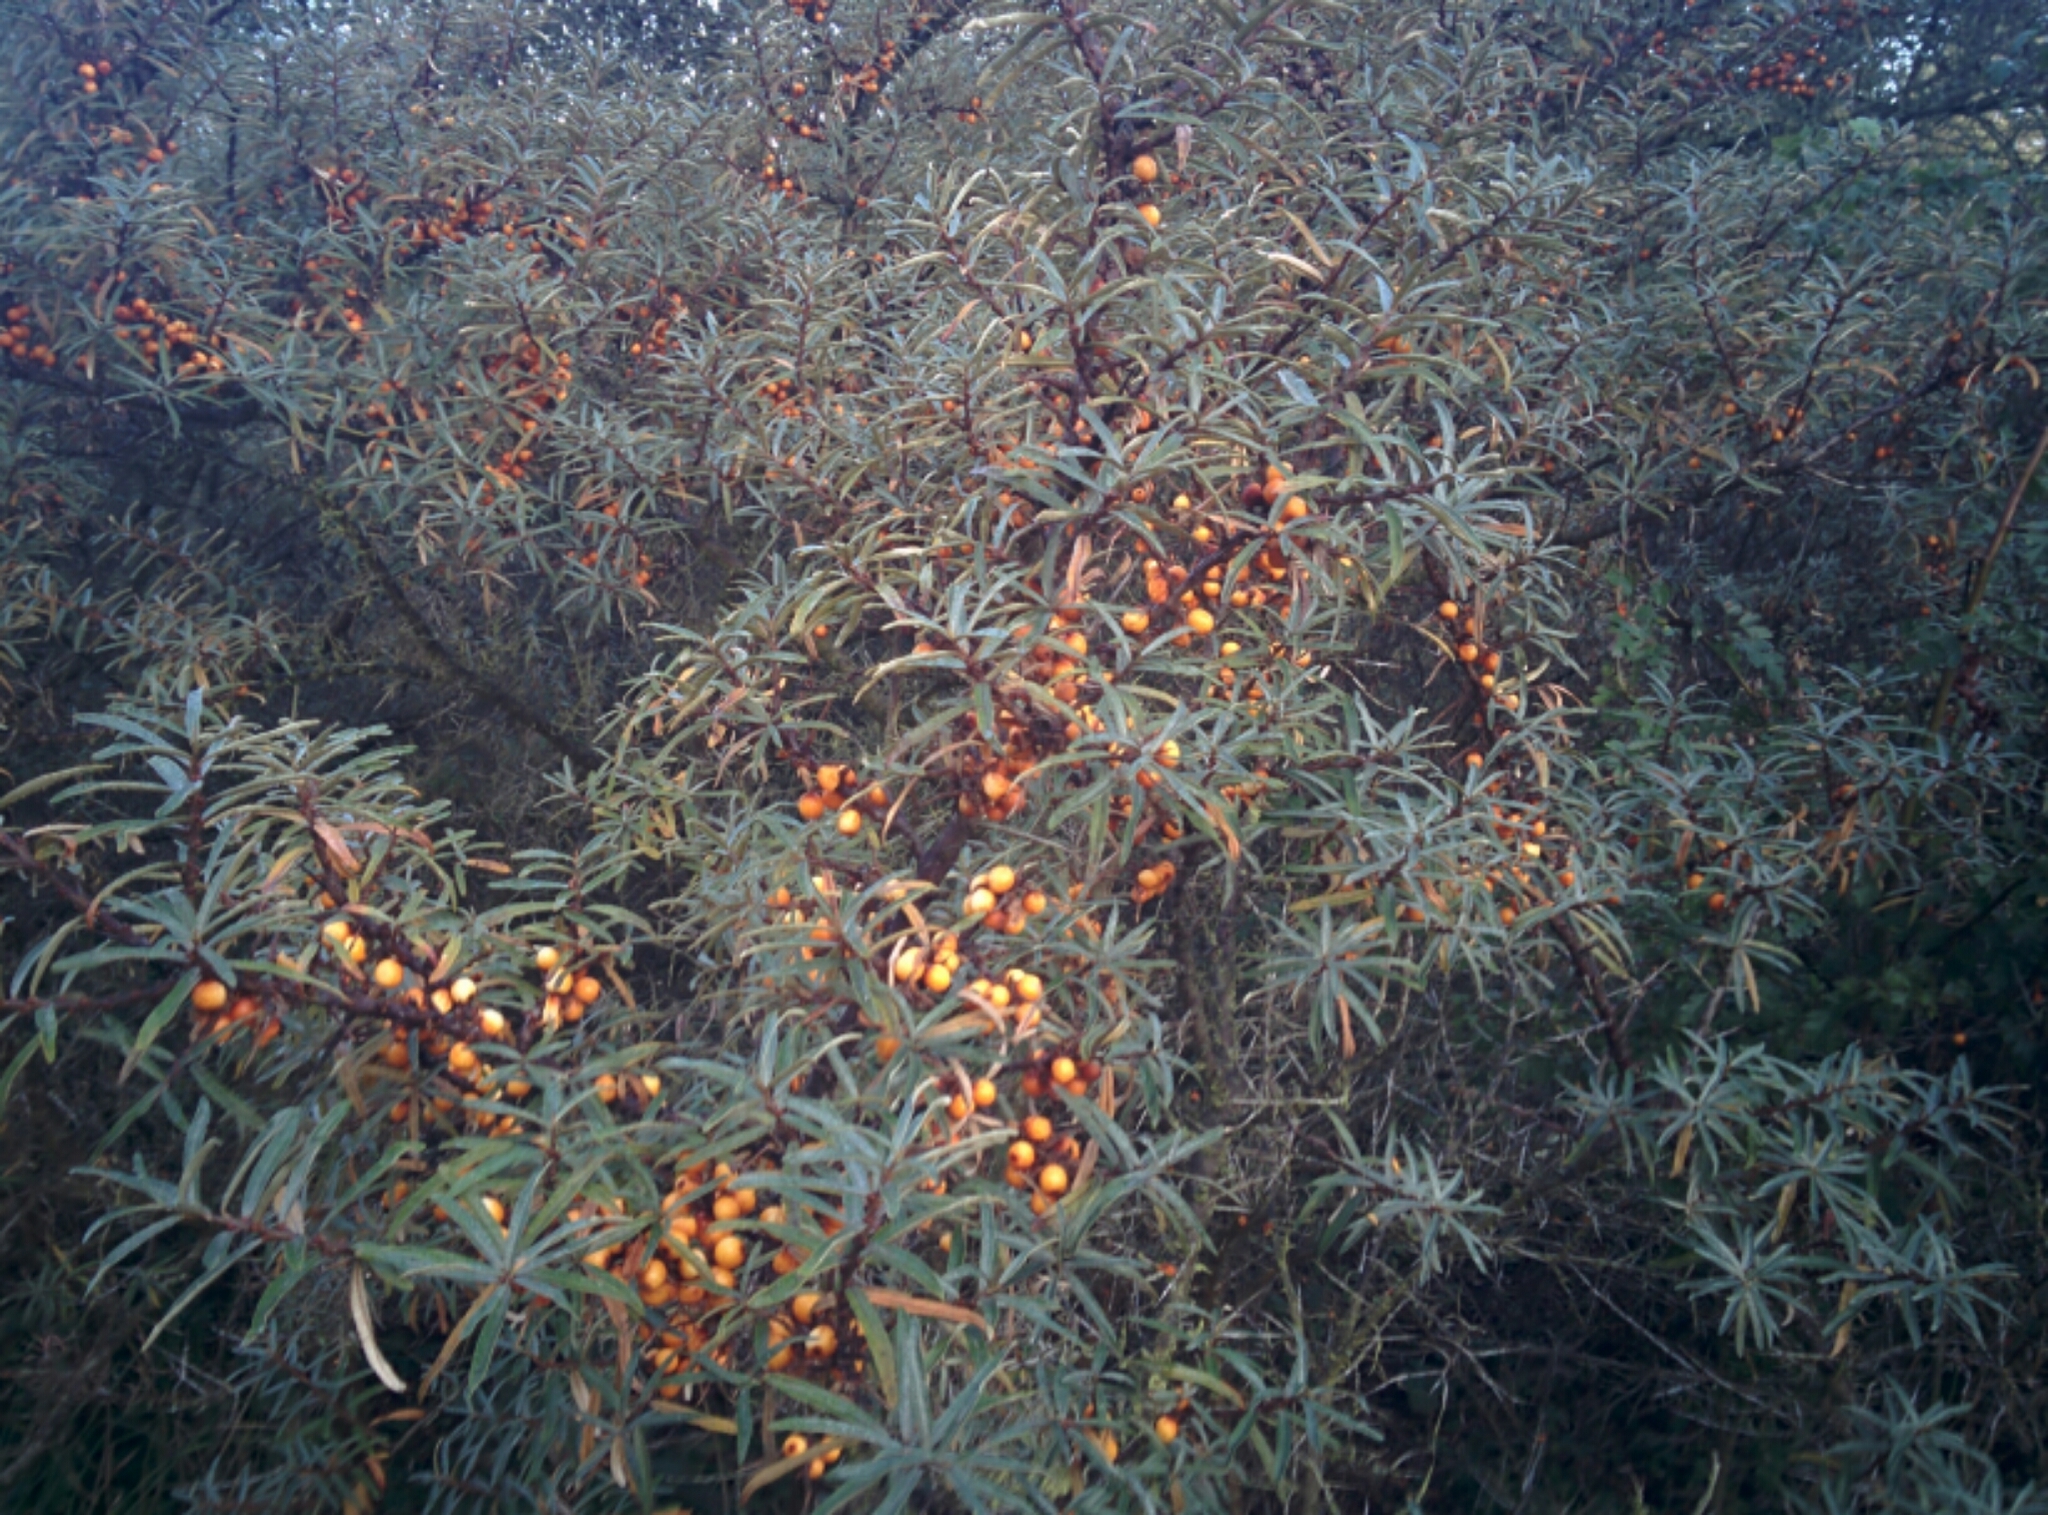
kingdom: Plantae
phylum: Tracheophyta
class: Magnoliopsida
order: Rosales
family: Elaeagnaceae
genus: Hippophae
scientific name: Hippophae rhamnoides
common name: Sea-buckthorn
